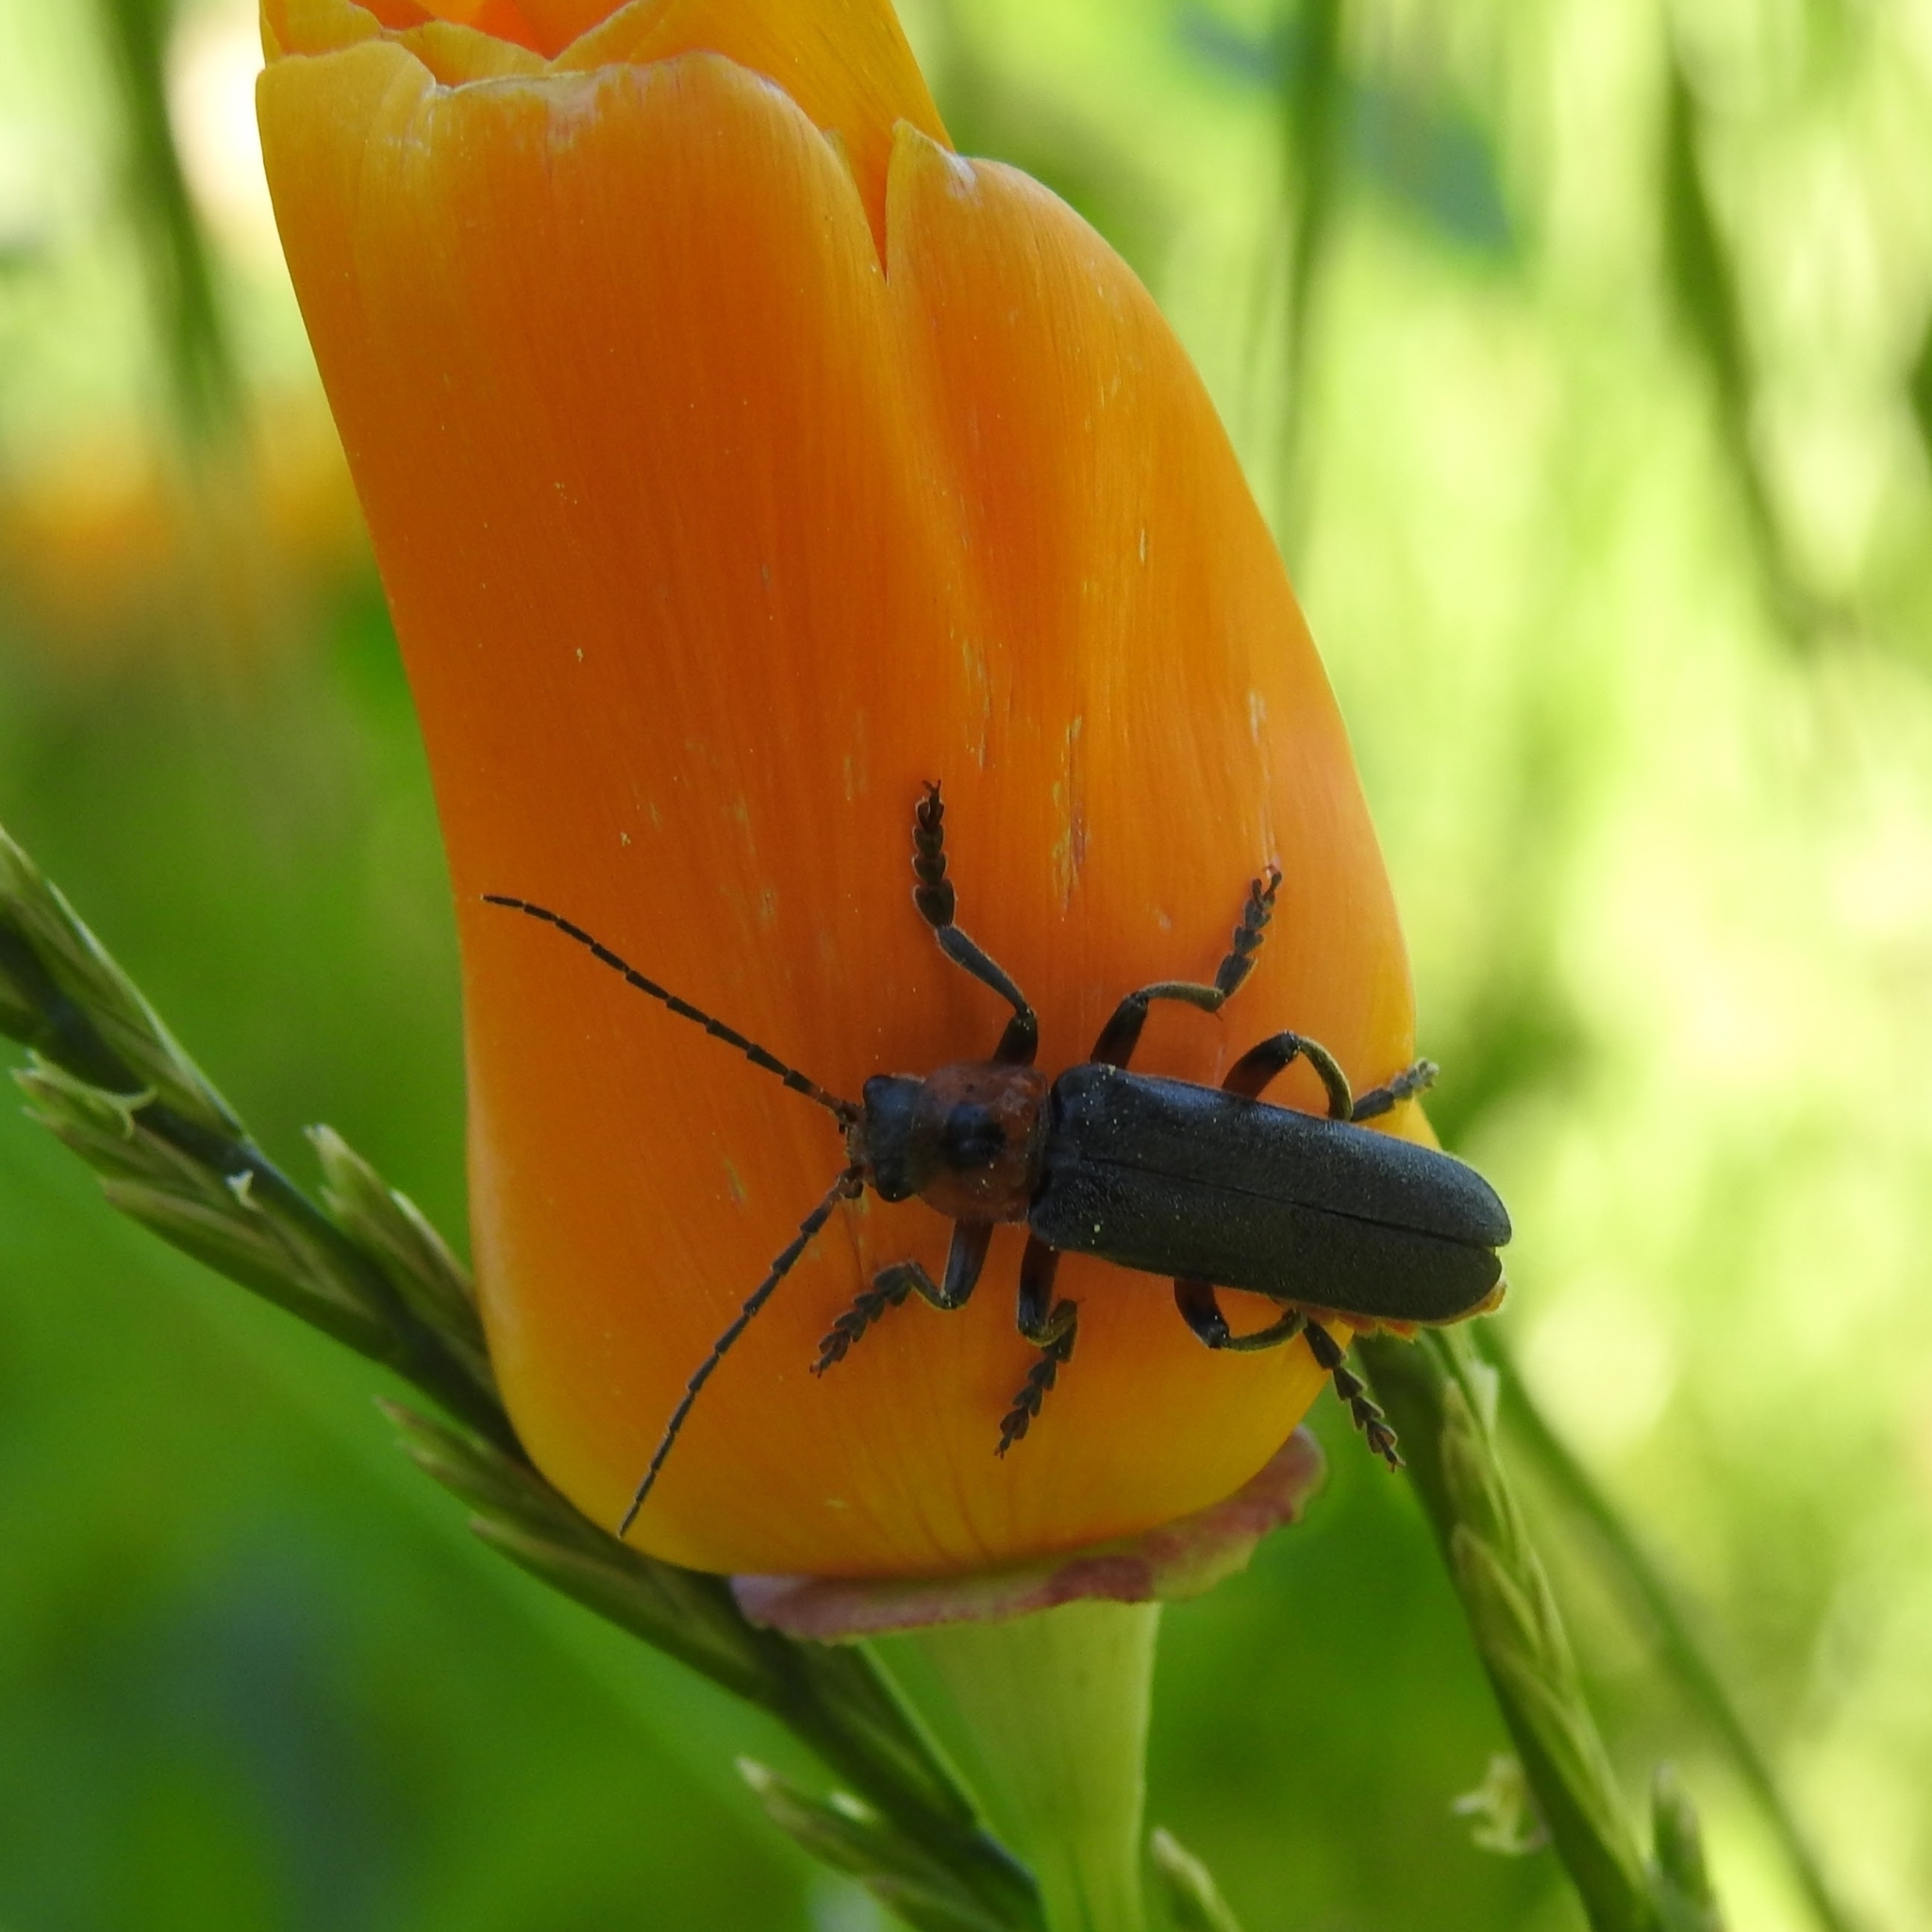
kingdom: Animalia
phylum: Arthropoda
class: Insecta
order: Coleoptera
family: Cantharidae
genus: Cantharis
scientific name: Cantharis rustica
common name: Soldier beetle
